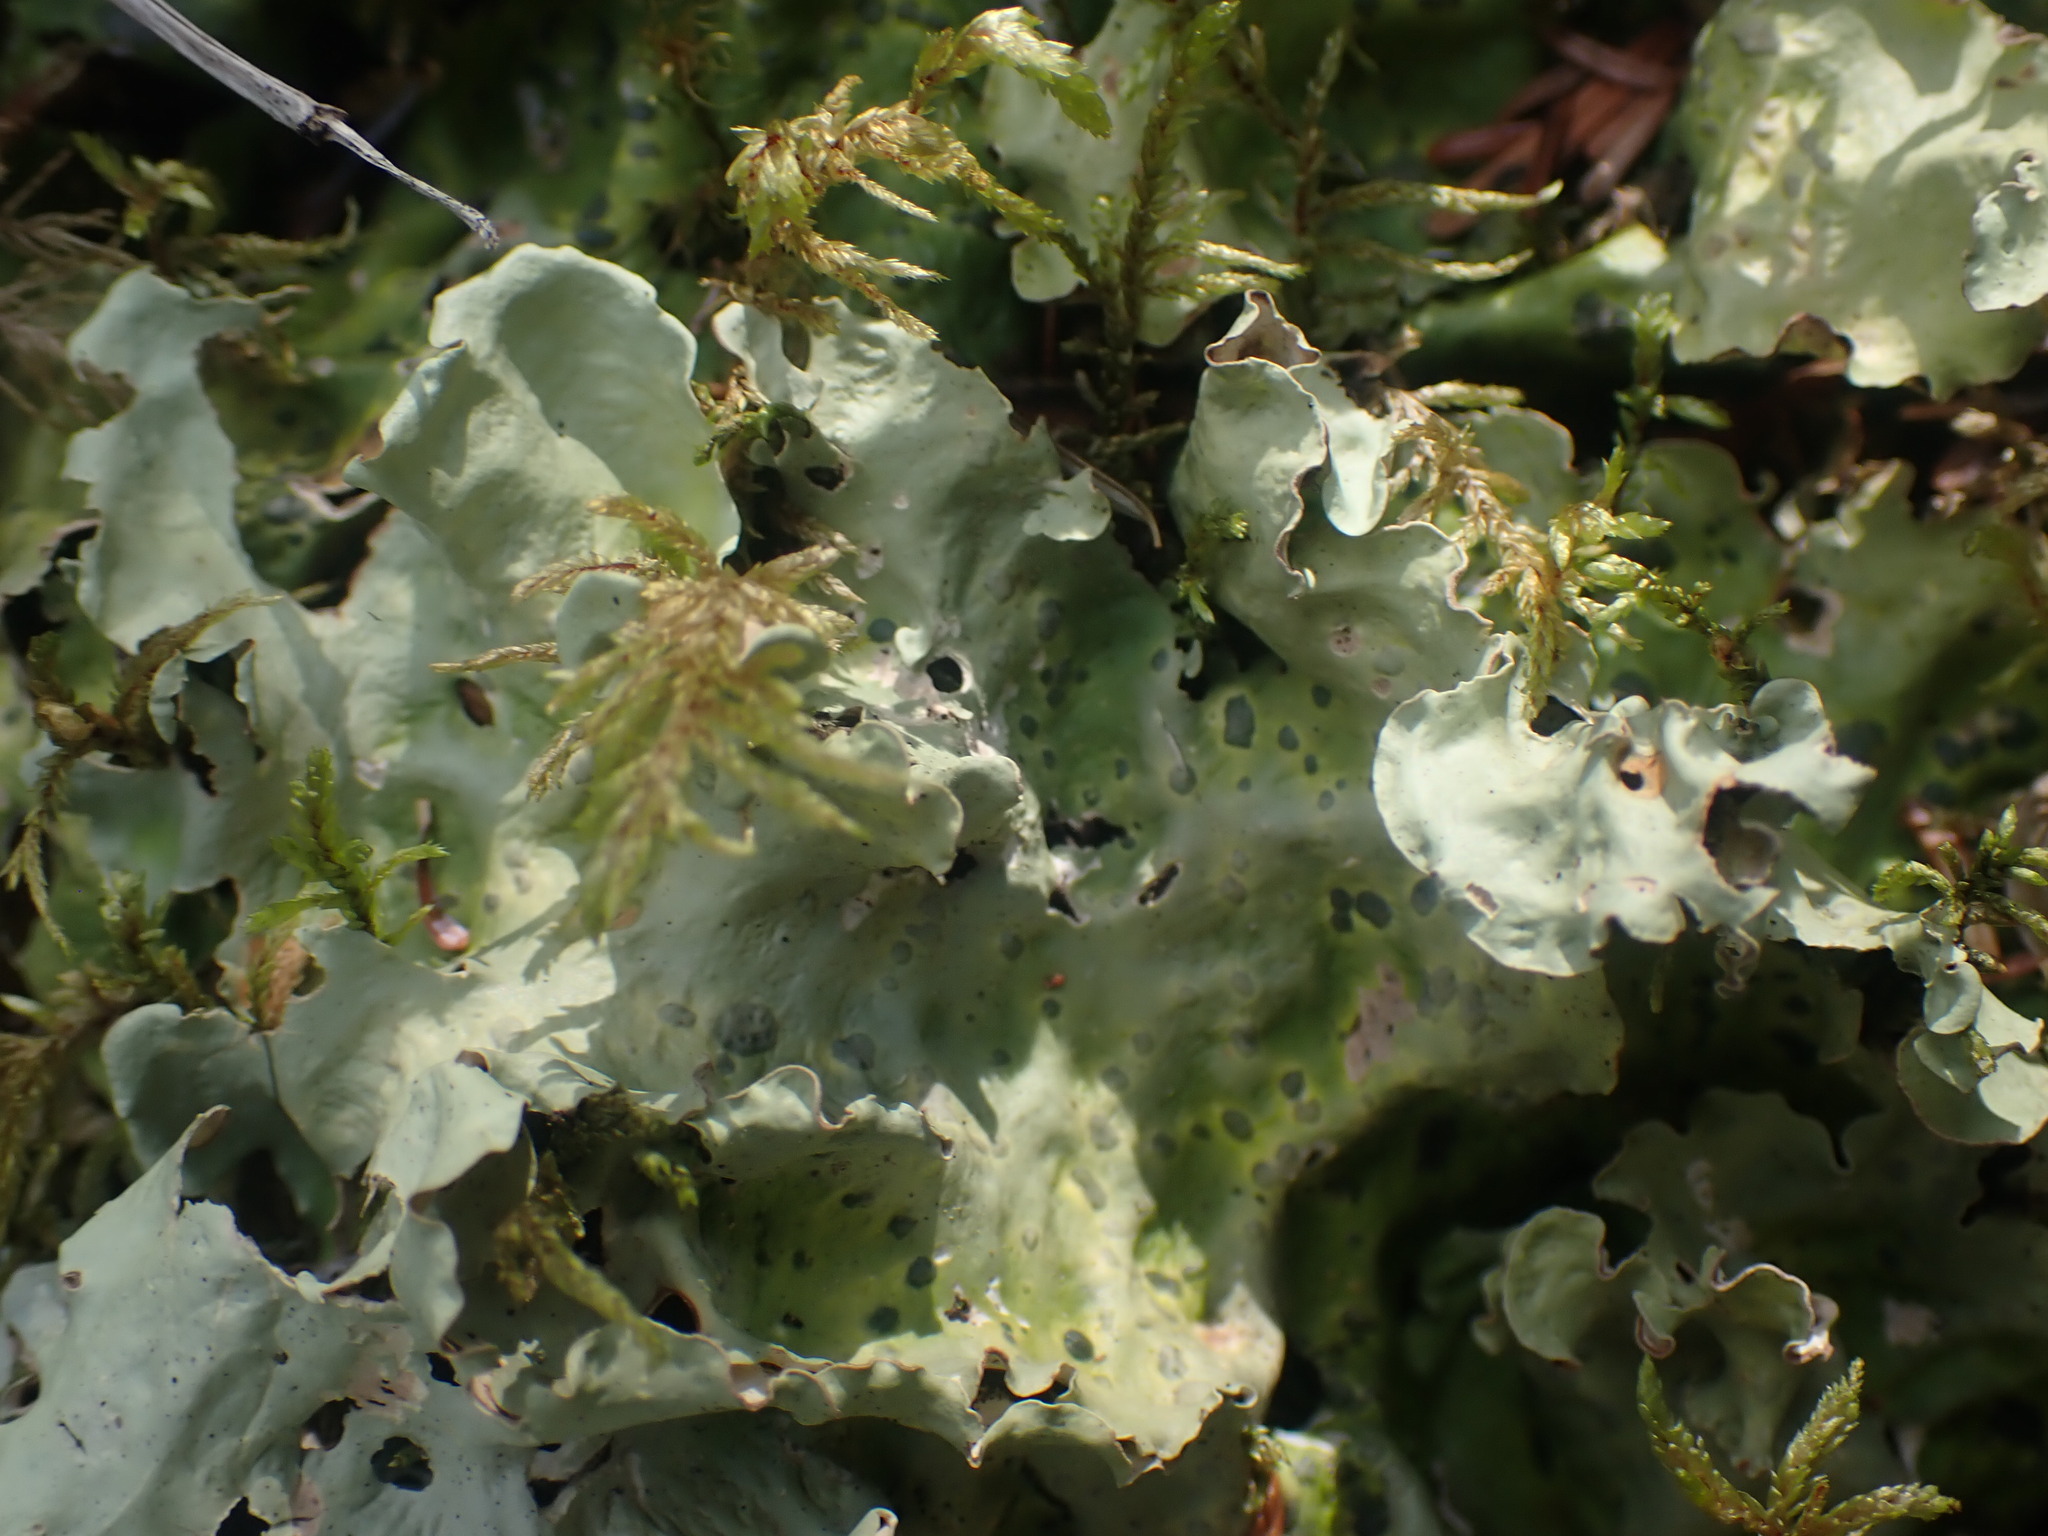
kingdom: Fungi
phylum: Ascomycota
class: Lecanoromycetes
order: Peltigerales
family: Nephromataceae
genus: Nephroma
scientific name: Nephroma arcticum
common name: Arctic kidney-lichen
